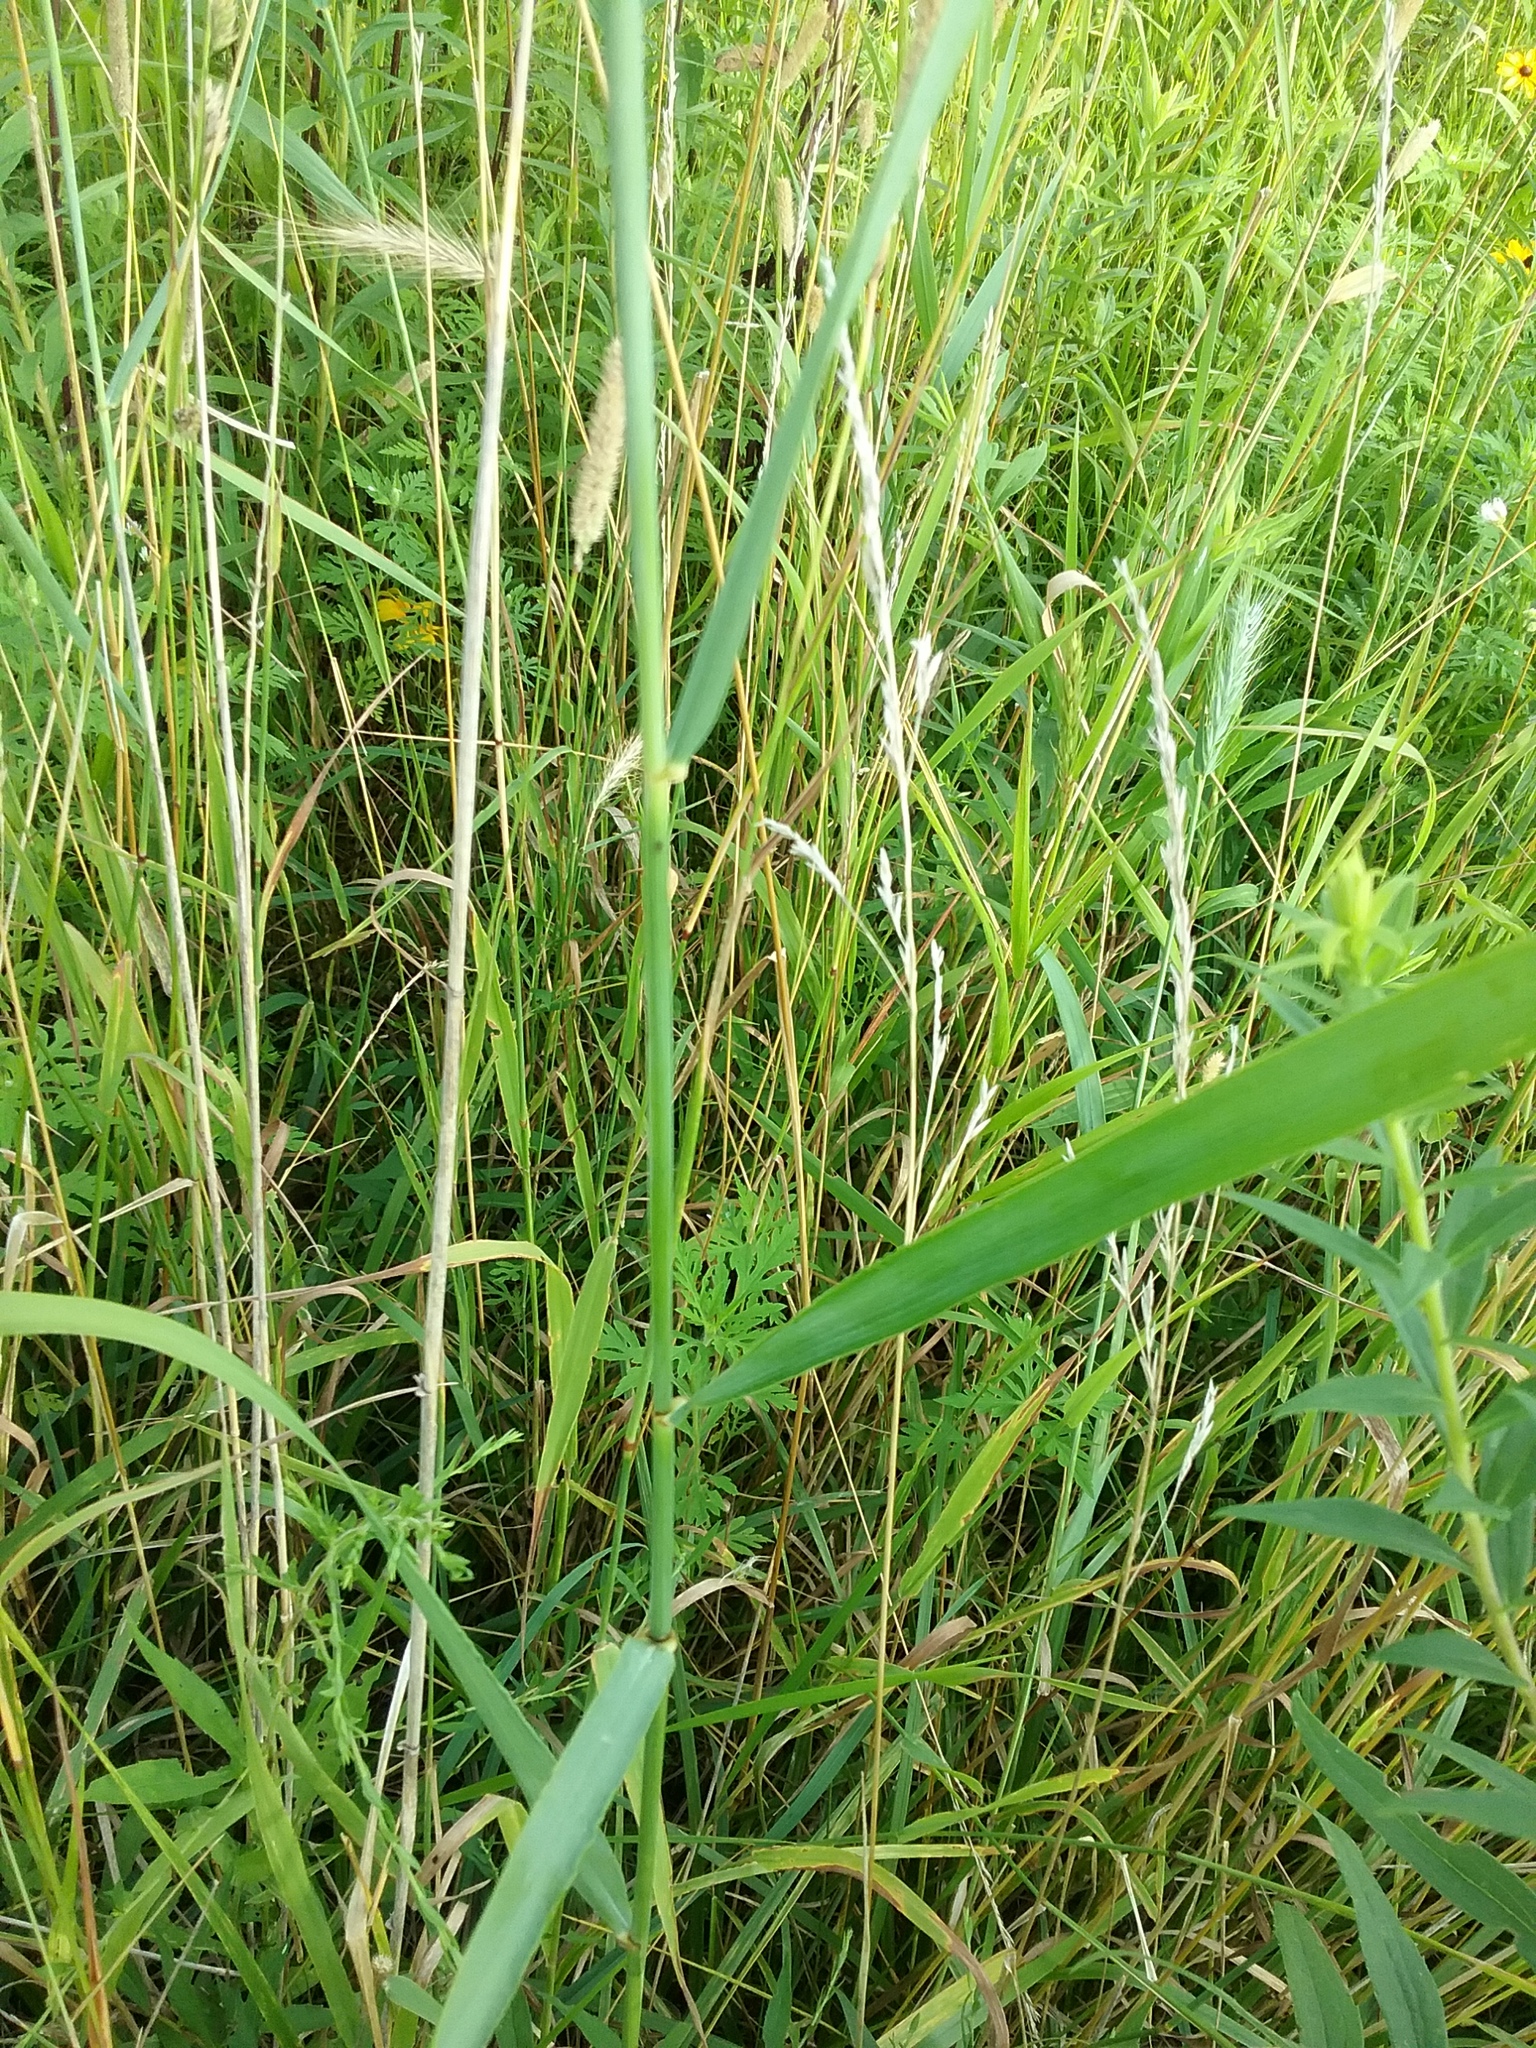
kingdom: Plantae
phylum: Tracheophyta
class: Liliopsida
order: Poales
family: Poaceae
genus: Elymus
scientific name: Elymus canadensis
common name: Canada wild rye
